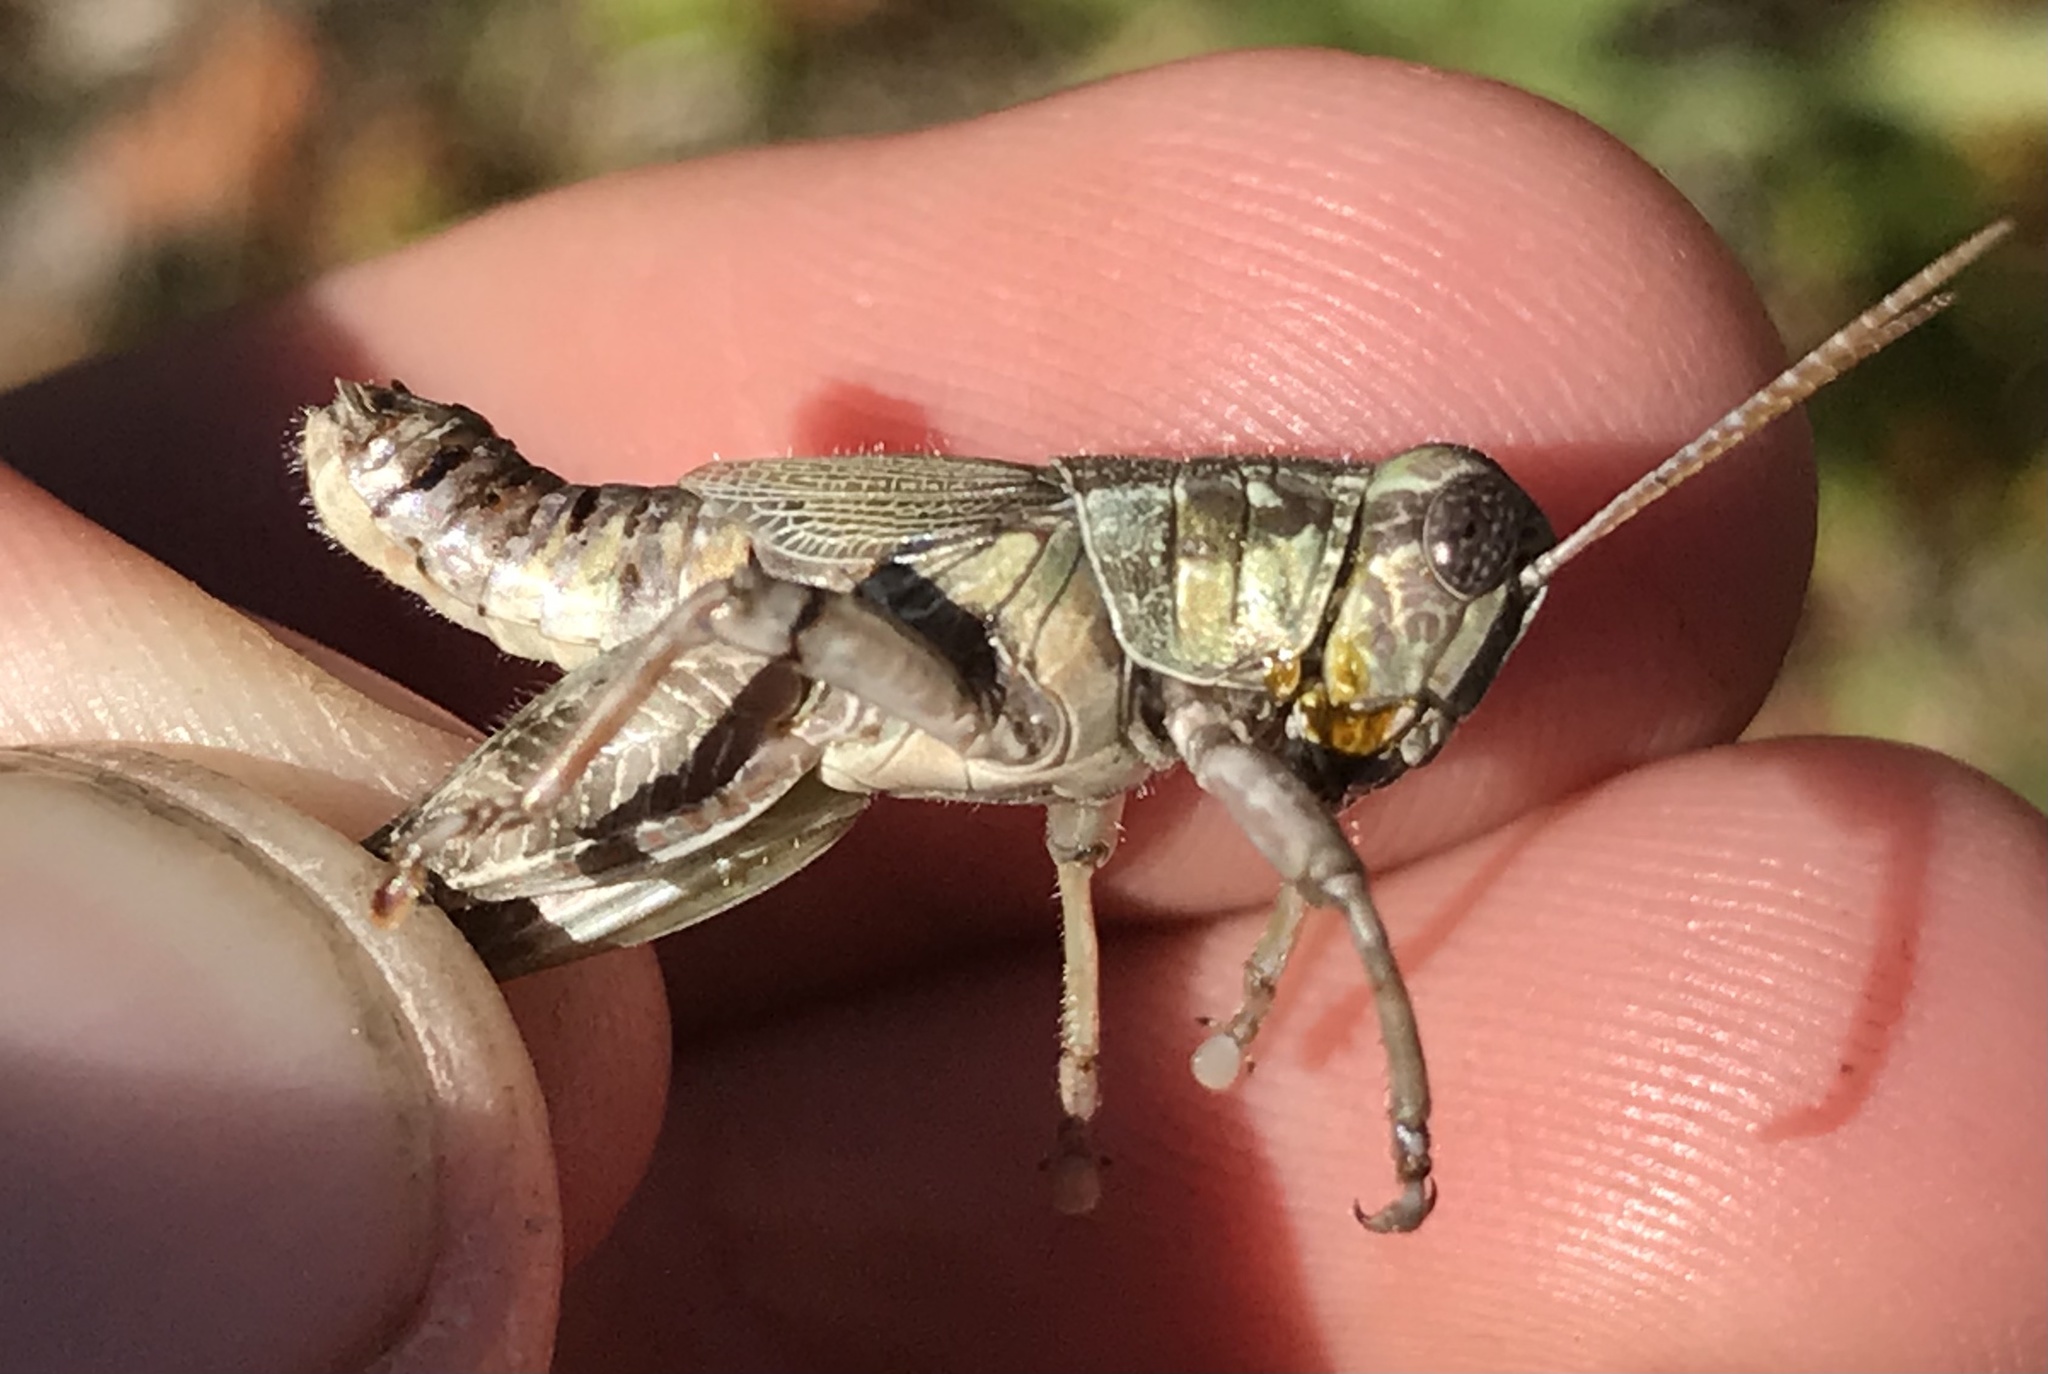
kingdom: Animalia
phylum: Arthropoda
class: Insecta
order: Orthoptera
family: Acrididae
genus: Campylacantha
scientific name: Campylacantha olivacea
